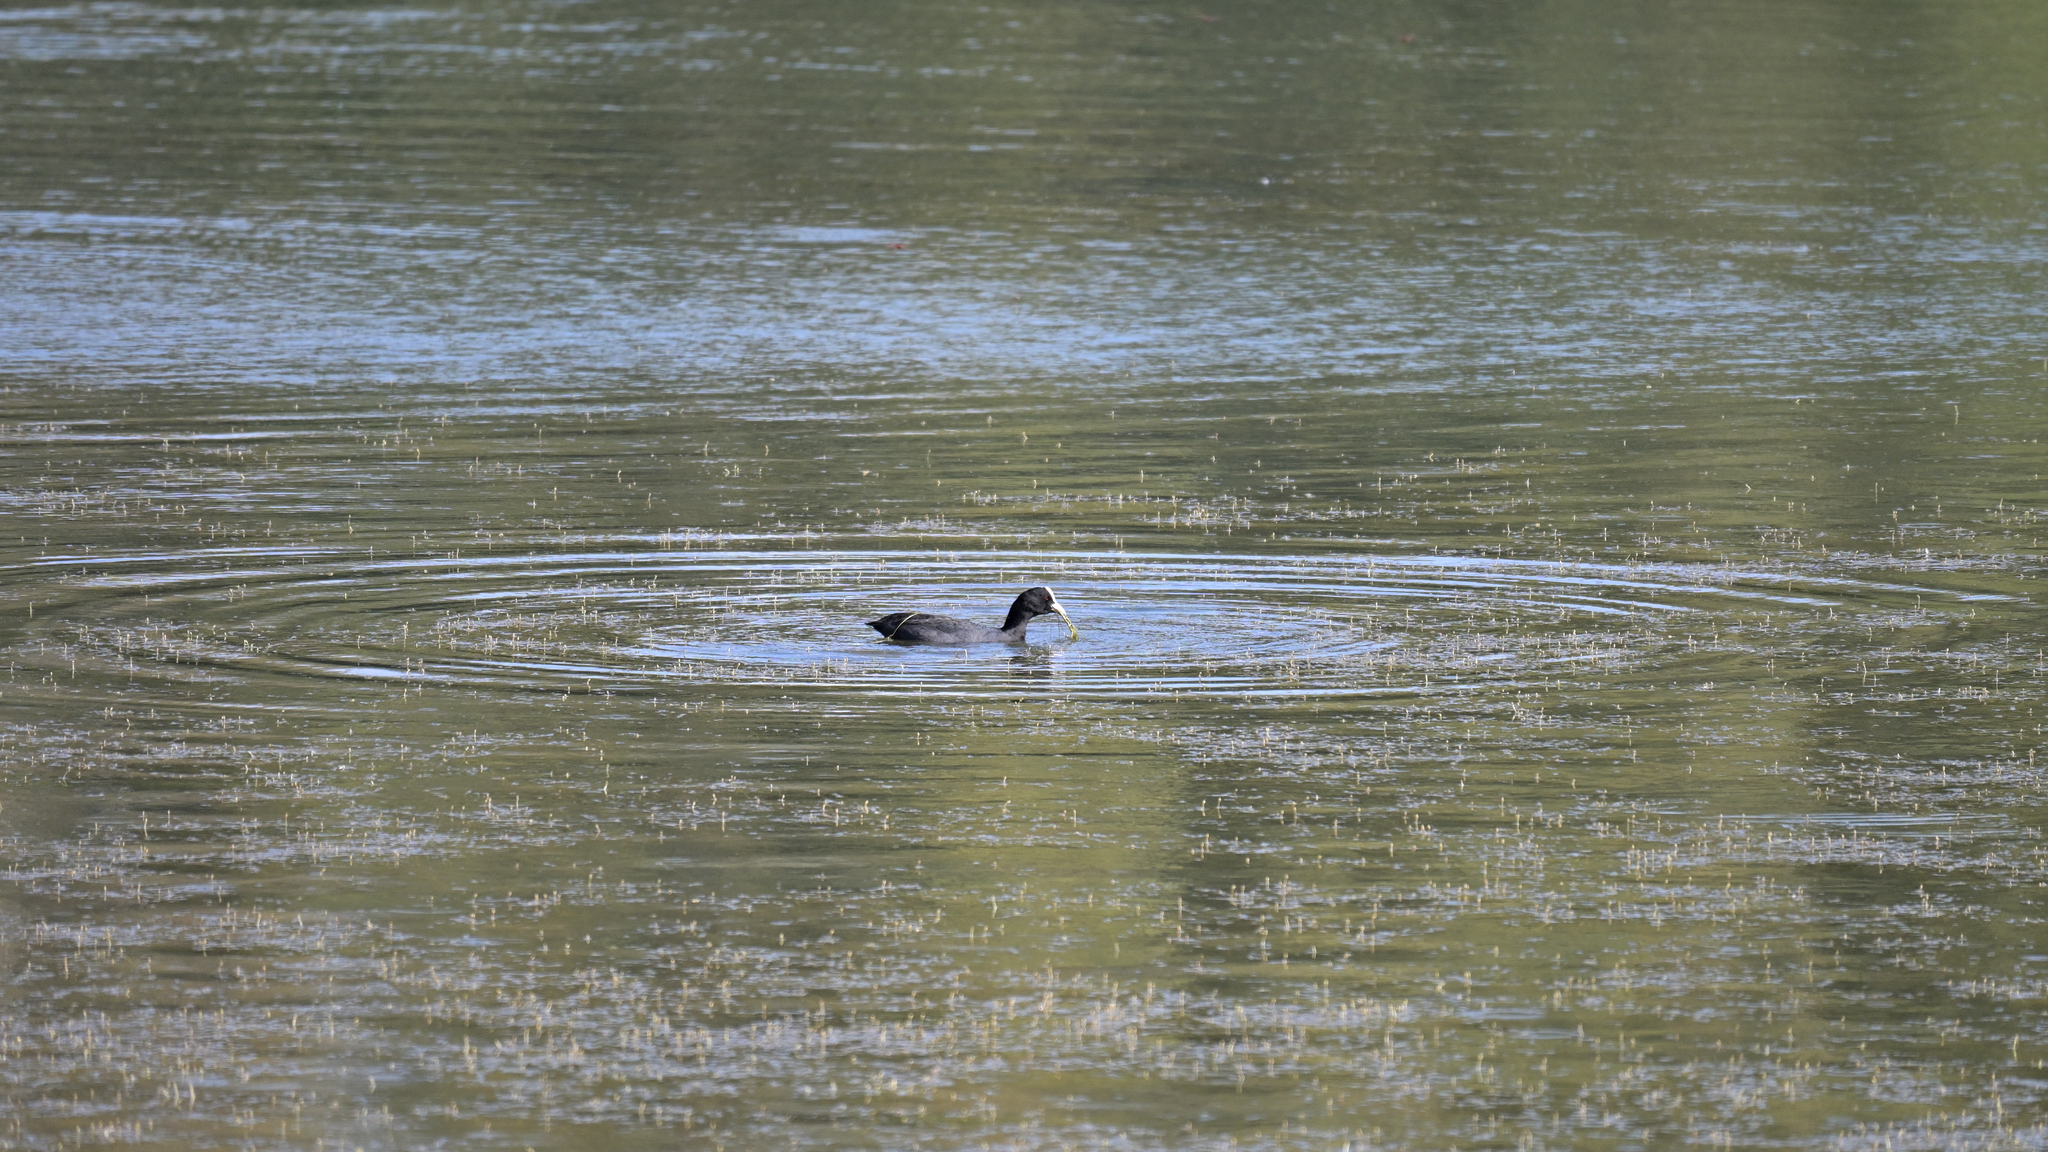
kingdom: Animalia
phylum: Chordata
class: Aves
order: Gruiformes
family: Rallidae
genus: Fulica
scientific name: Fulica atra
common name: Eurasian coot
